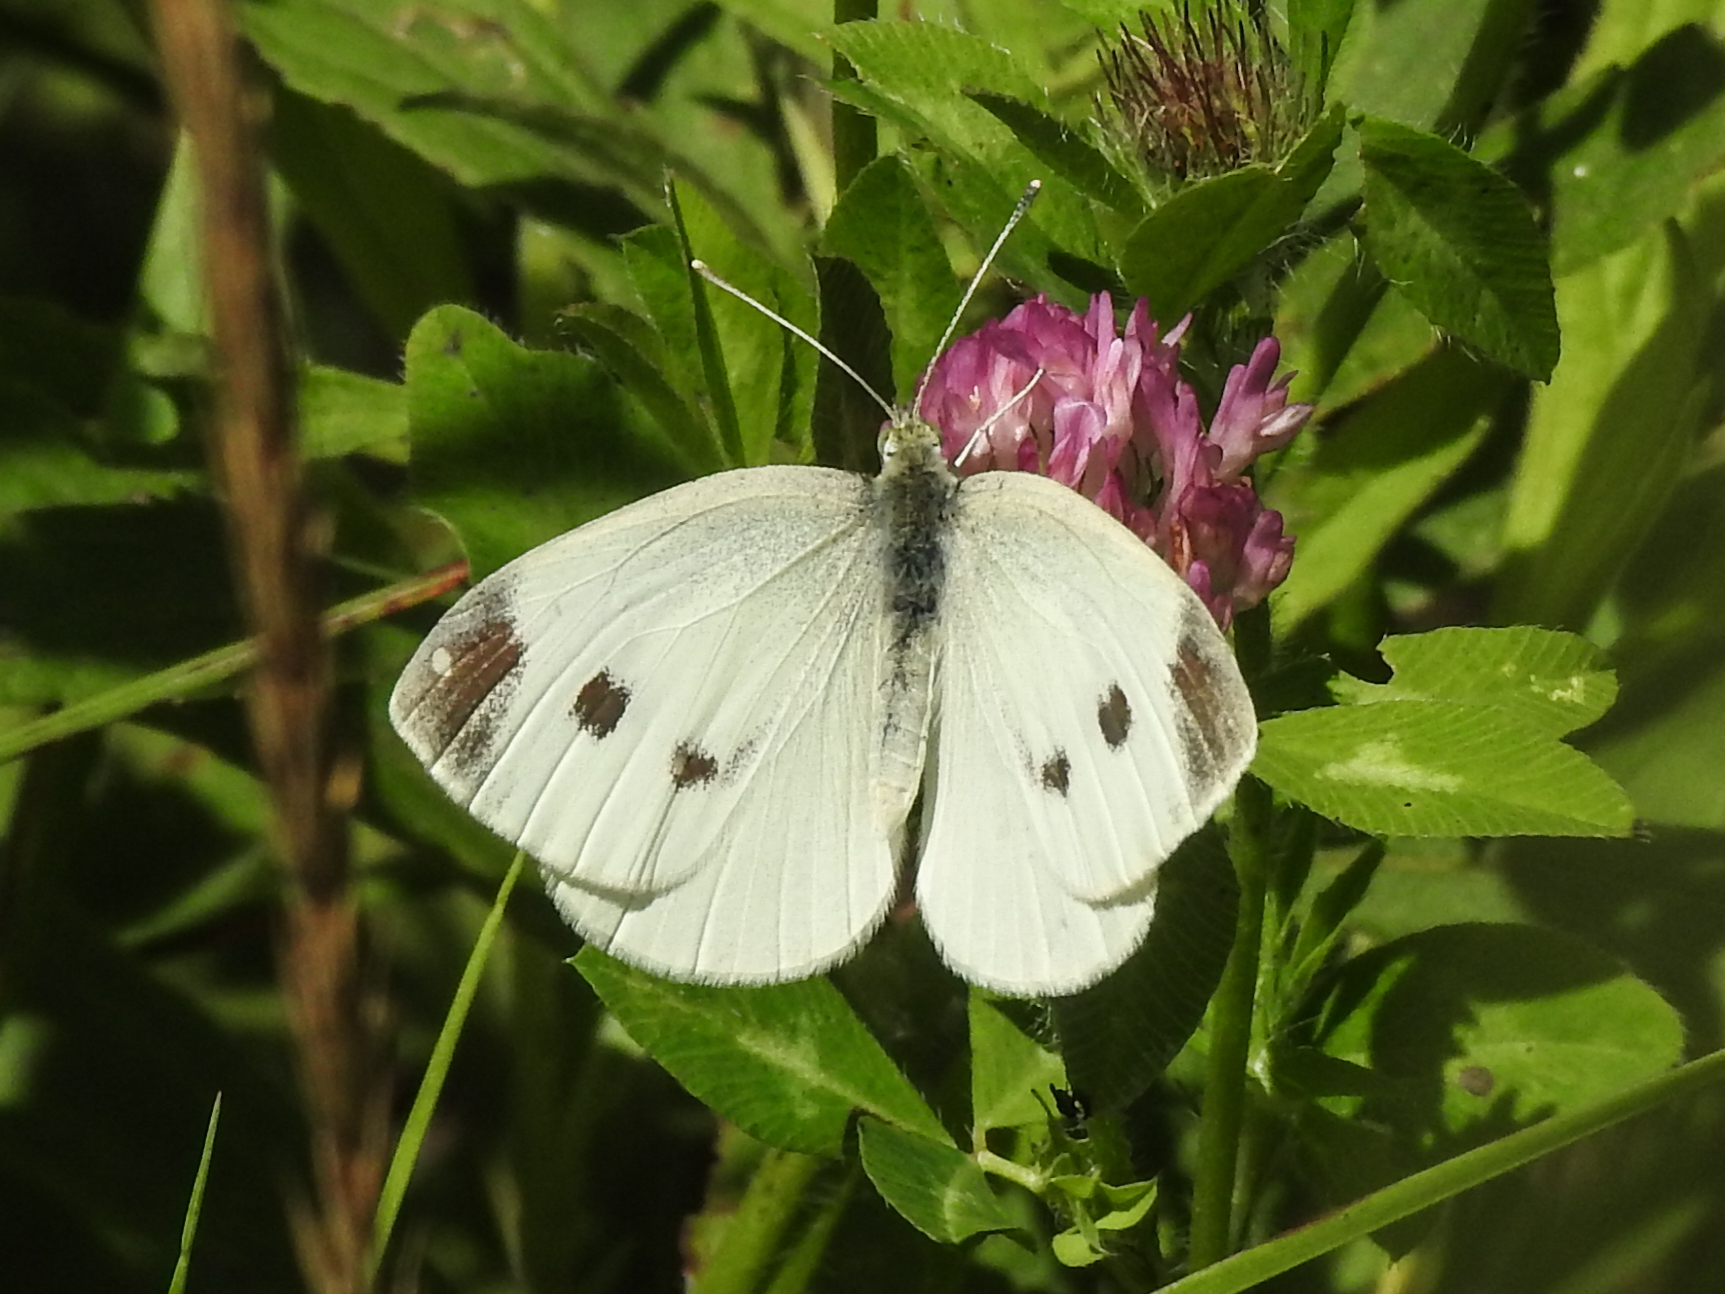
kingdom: Animalia
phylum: Arthropoda
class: Insecta
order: Lepidoptera
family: Pieridae
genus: Pieris
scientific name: Pieris rapae
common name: Small white
